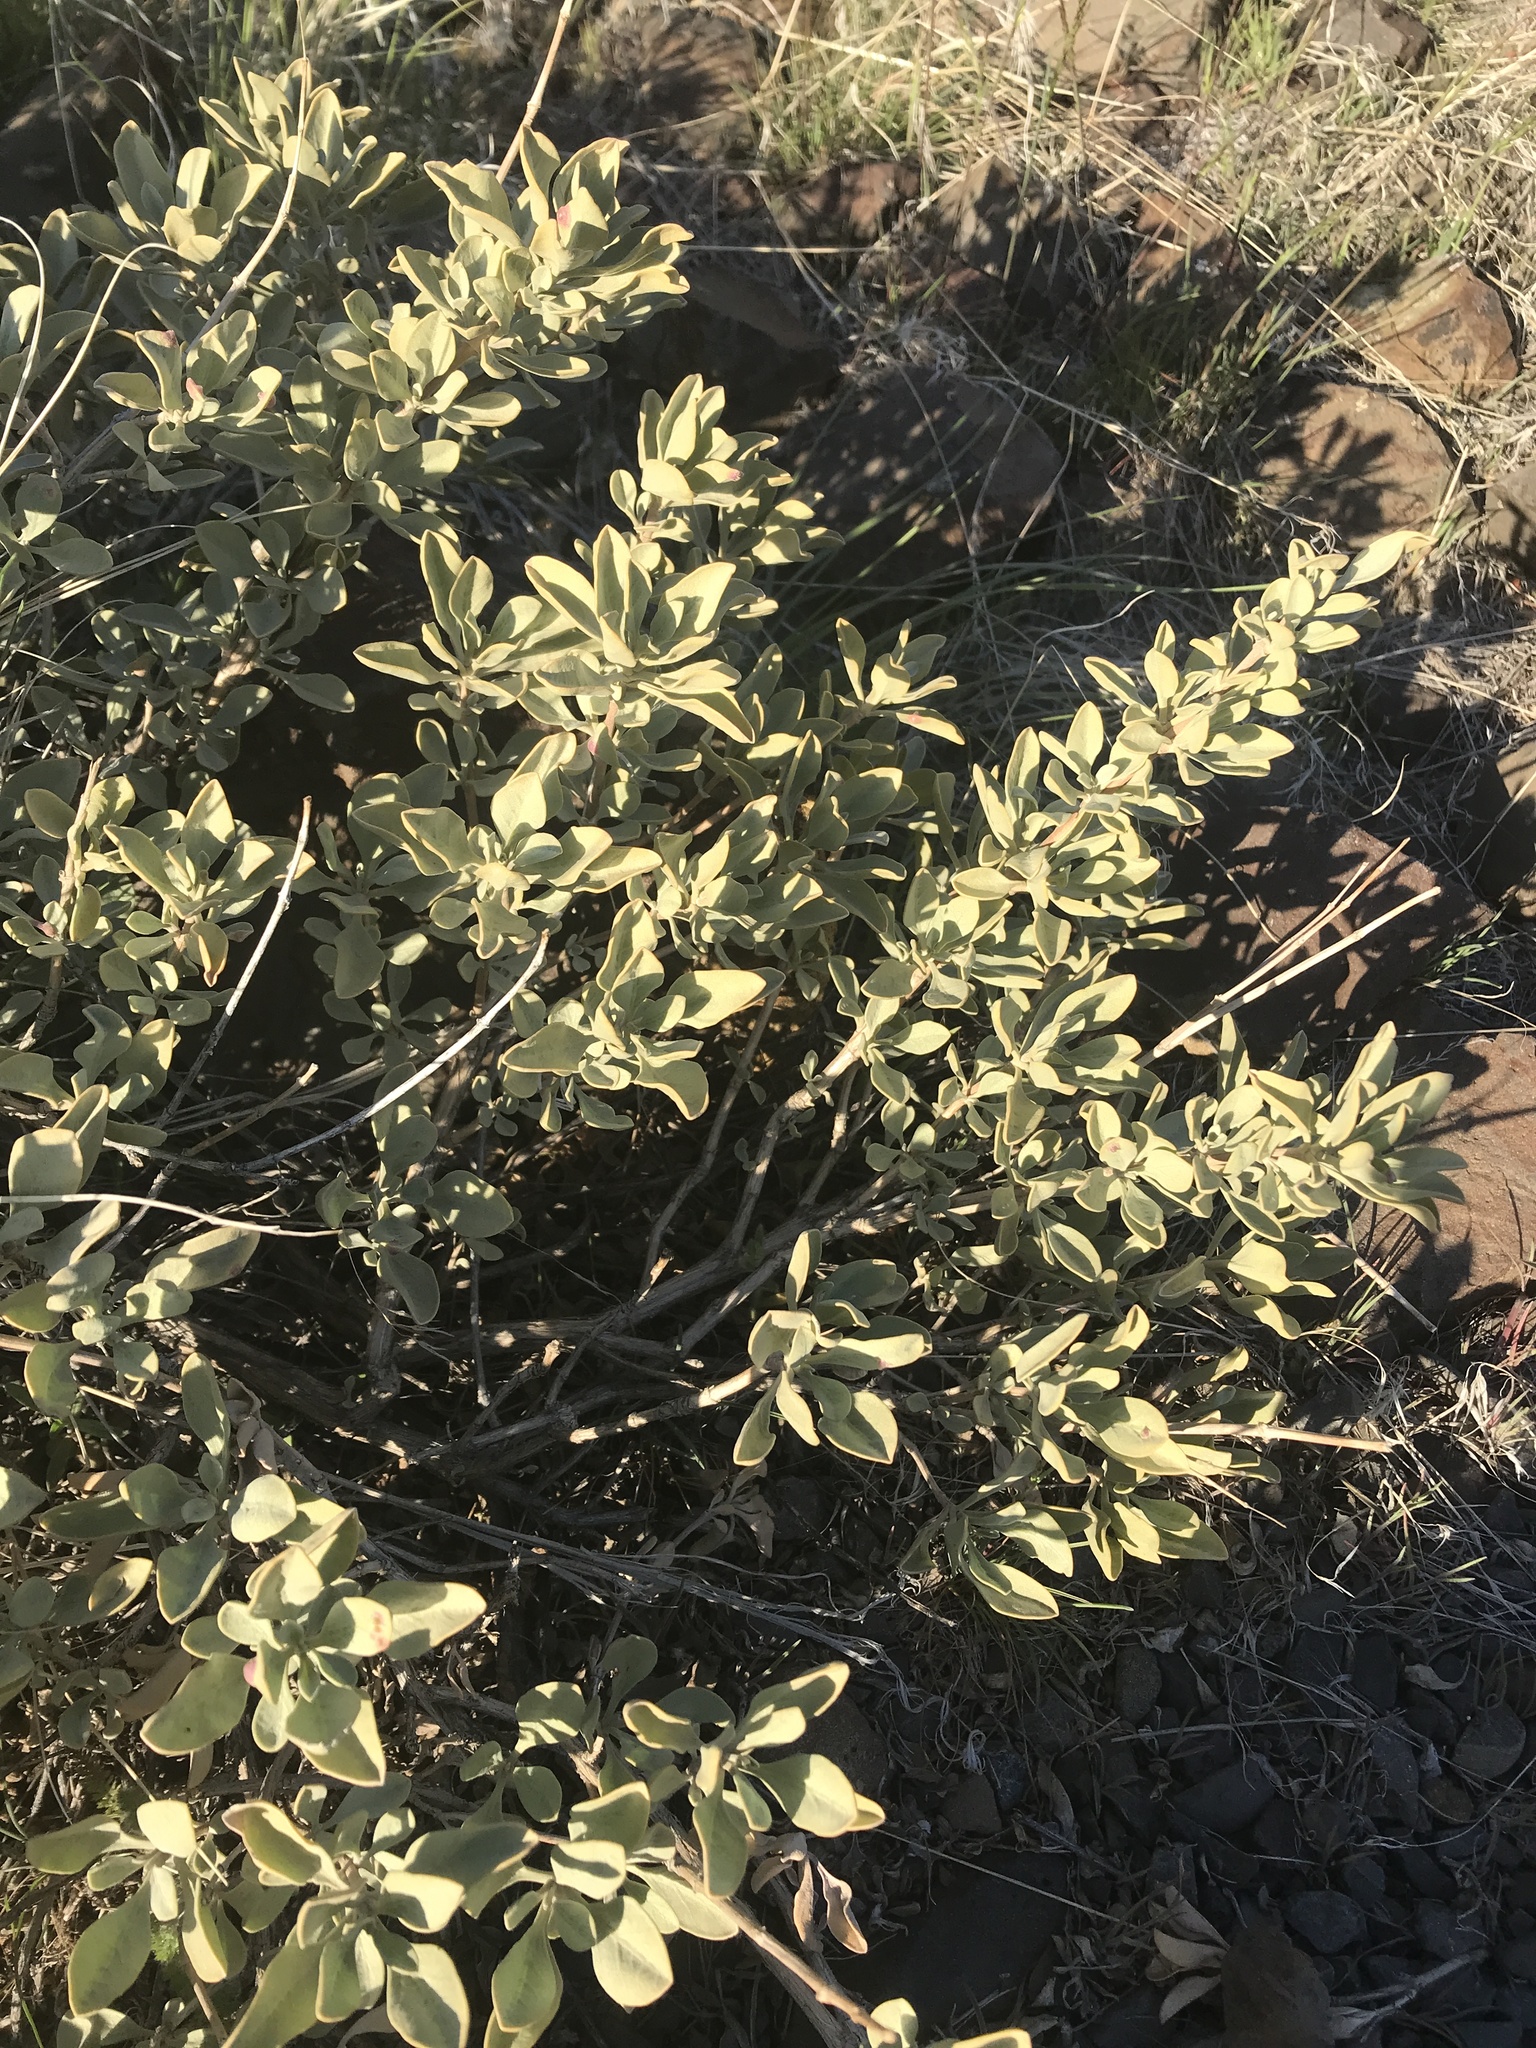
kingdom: Plantae
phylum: Tracheophyta
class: Magnoliopsida
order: Lamiales
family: Lamiaceae
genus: Salvia
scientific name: Salvia dorrii
